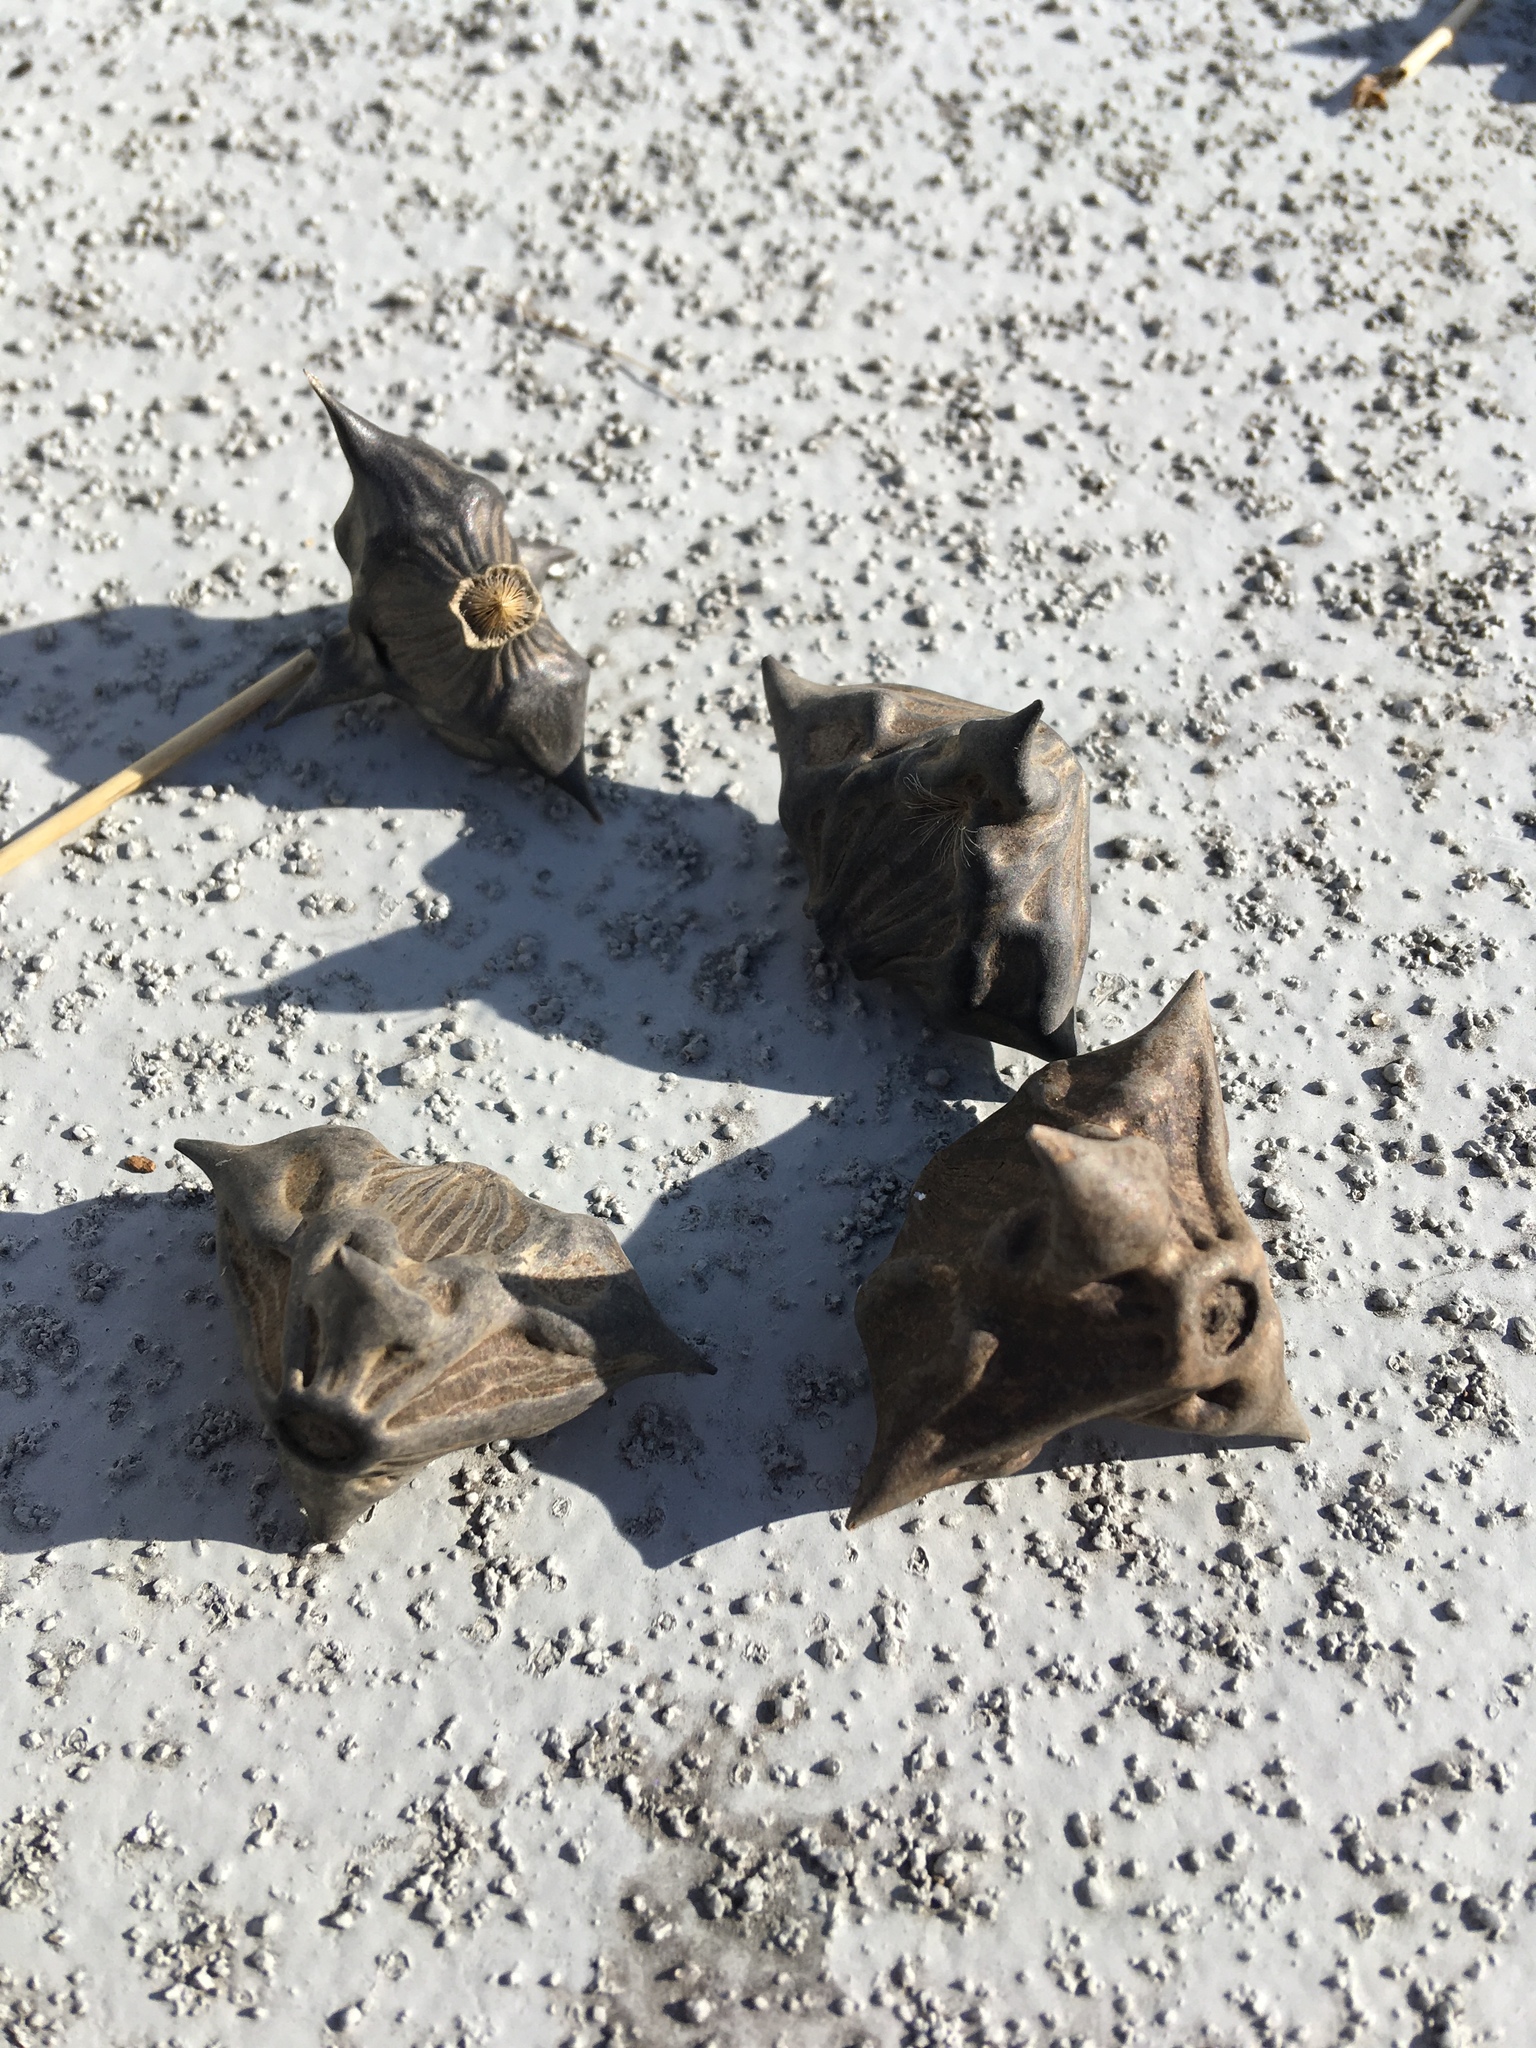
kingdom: Plantae
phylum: Tracheophyta
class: Magnoliopsida
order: Myrtales
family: Lythraceae
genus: Trapa
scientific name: Trapa natans
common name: Water chestnut
